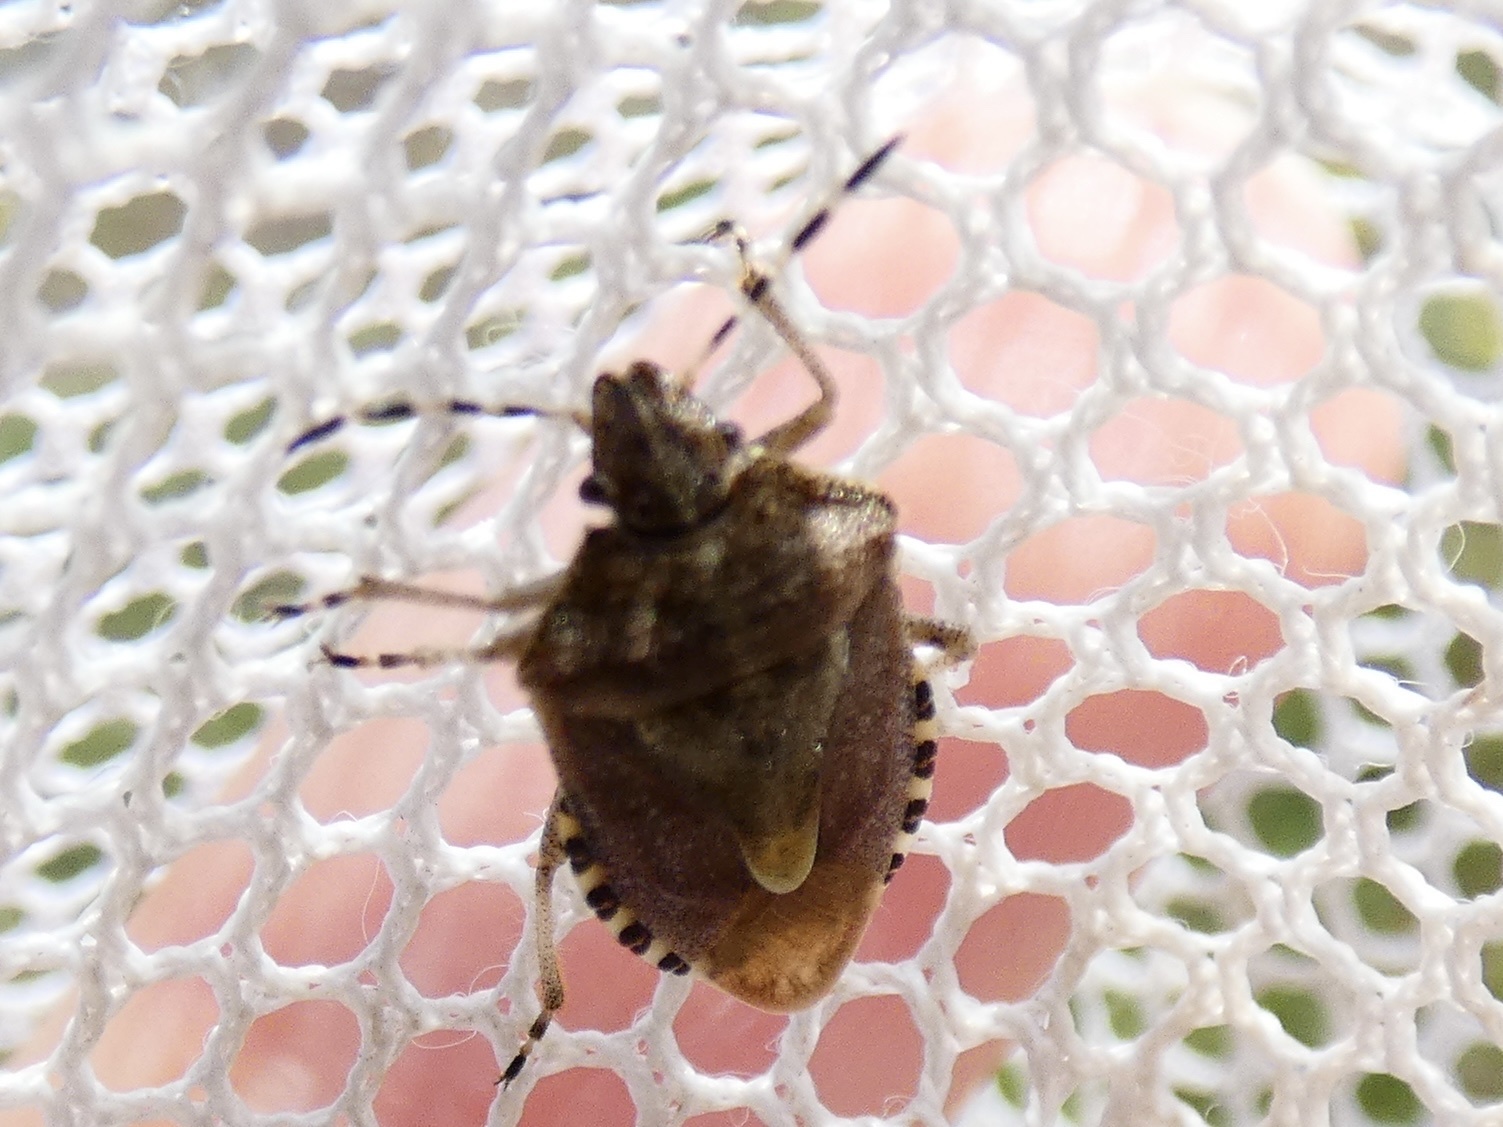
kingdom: Animalia
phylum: Arthropoda
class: Insecta
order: Hemiptera
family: Pentatomidae
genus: Dolycoris
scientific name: Dolycoris baccarum
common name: Sloe bug
